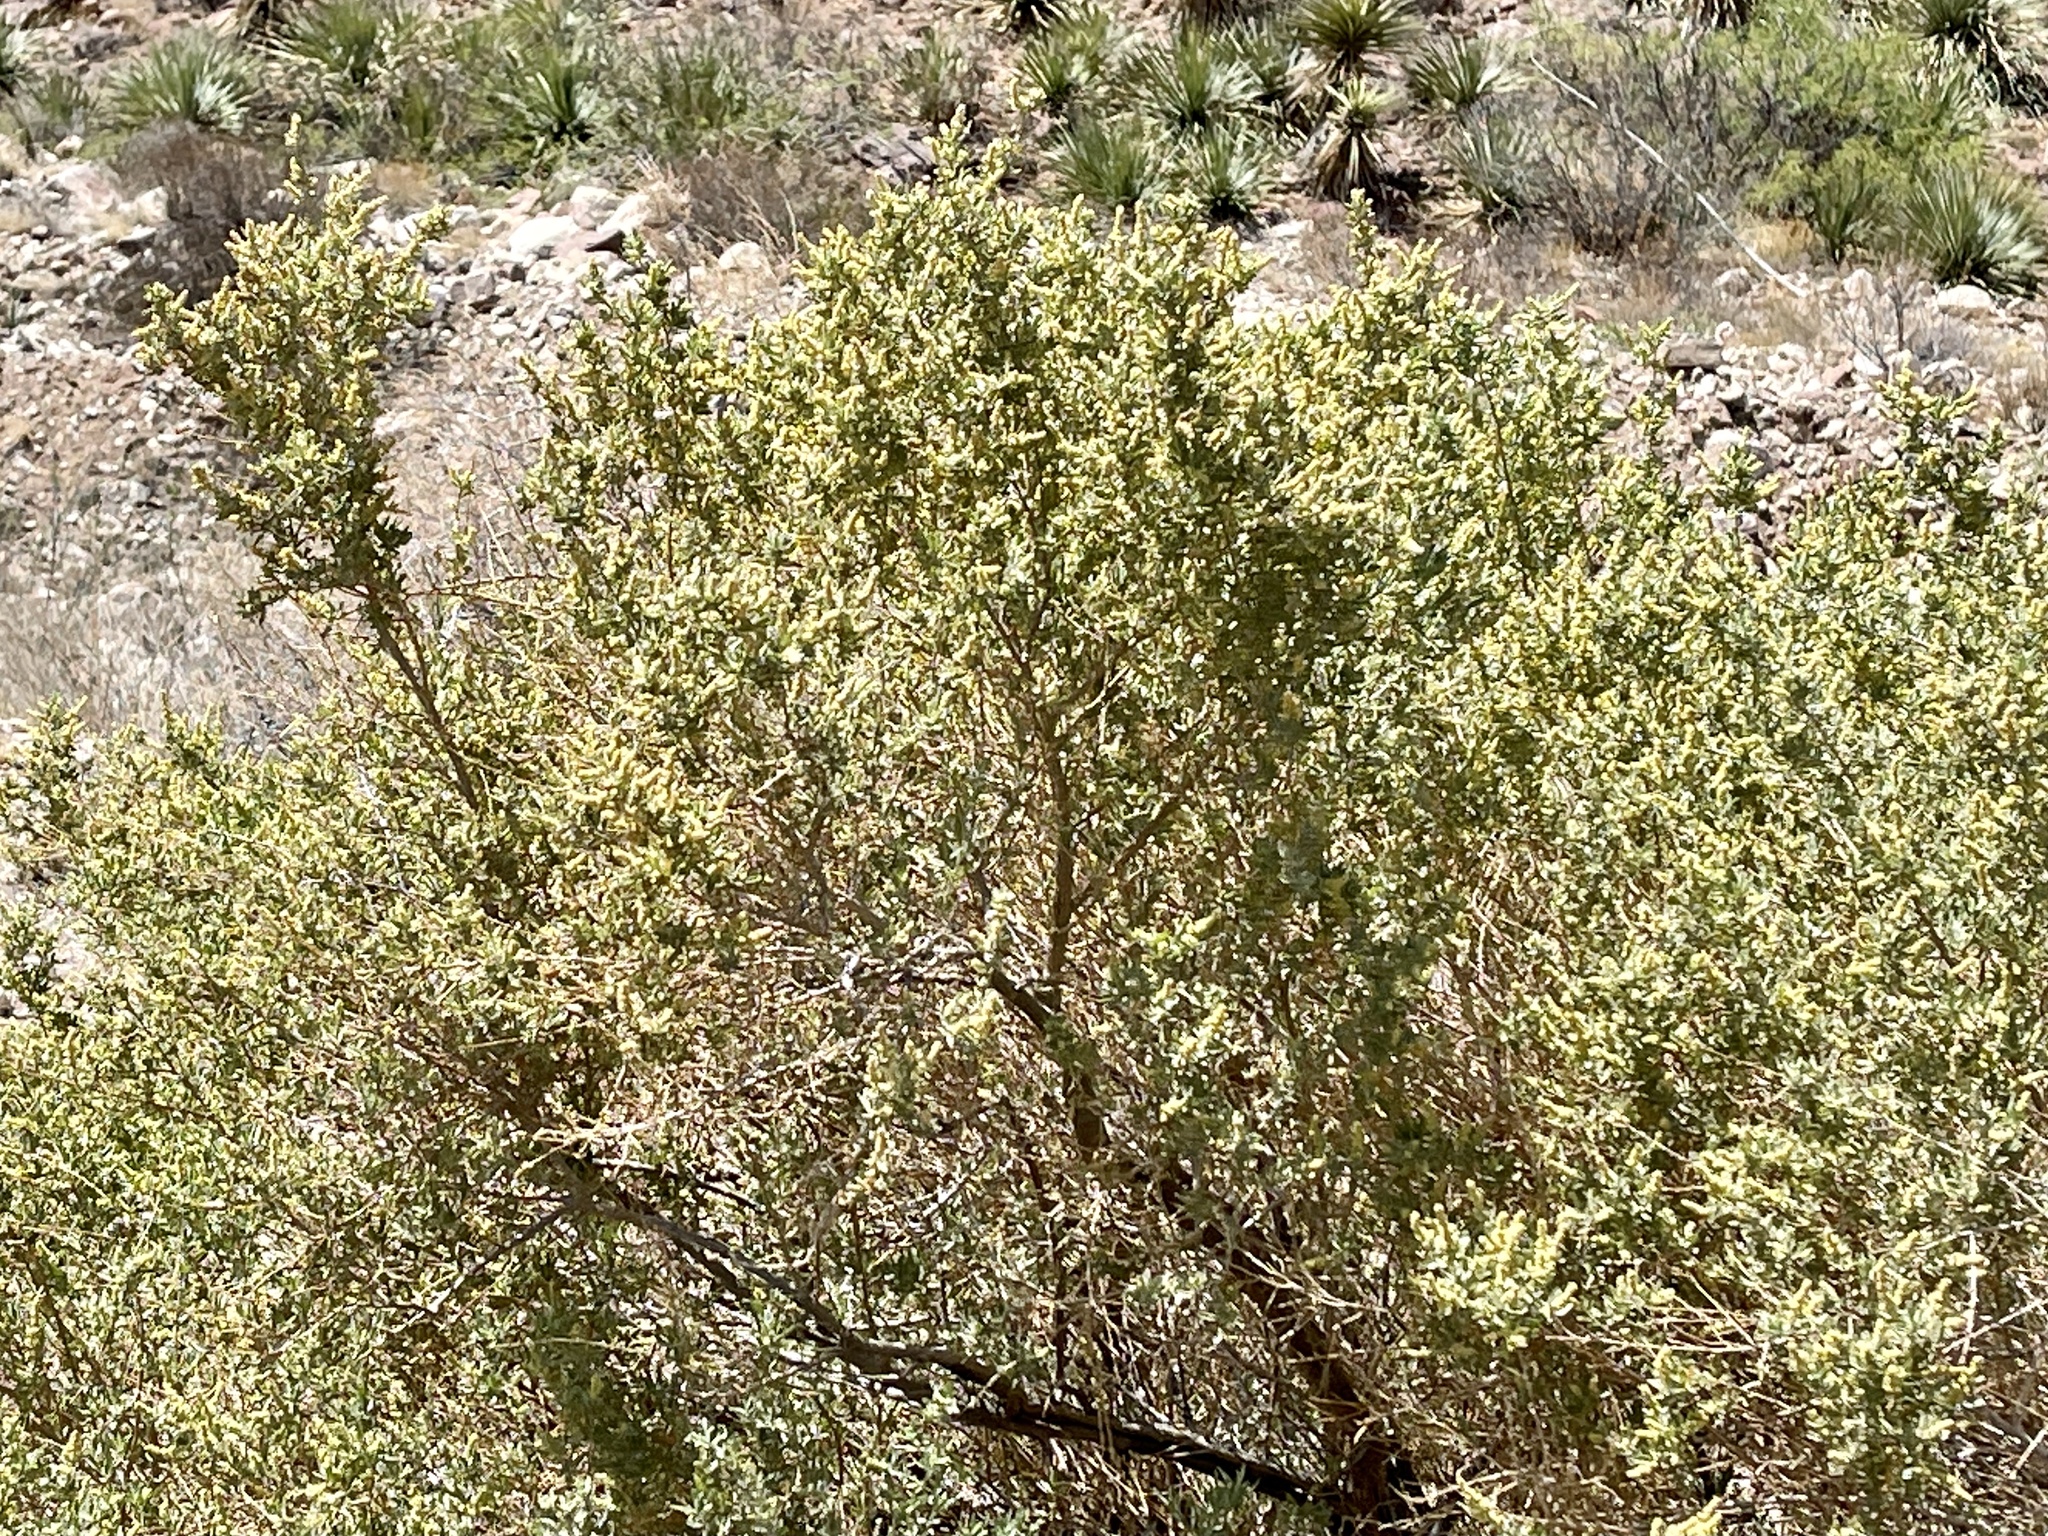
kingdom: Plantae
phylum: Tracheophyta
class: Magnoliopsida
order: Caryophyllales
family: Amaranthaceae
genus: Atriplex
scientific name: Atriplex canescens
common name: Four-wing saltbush
